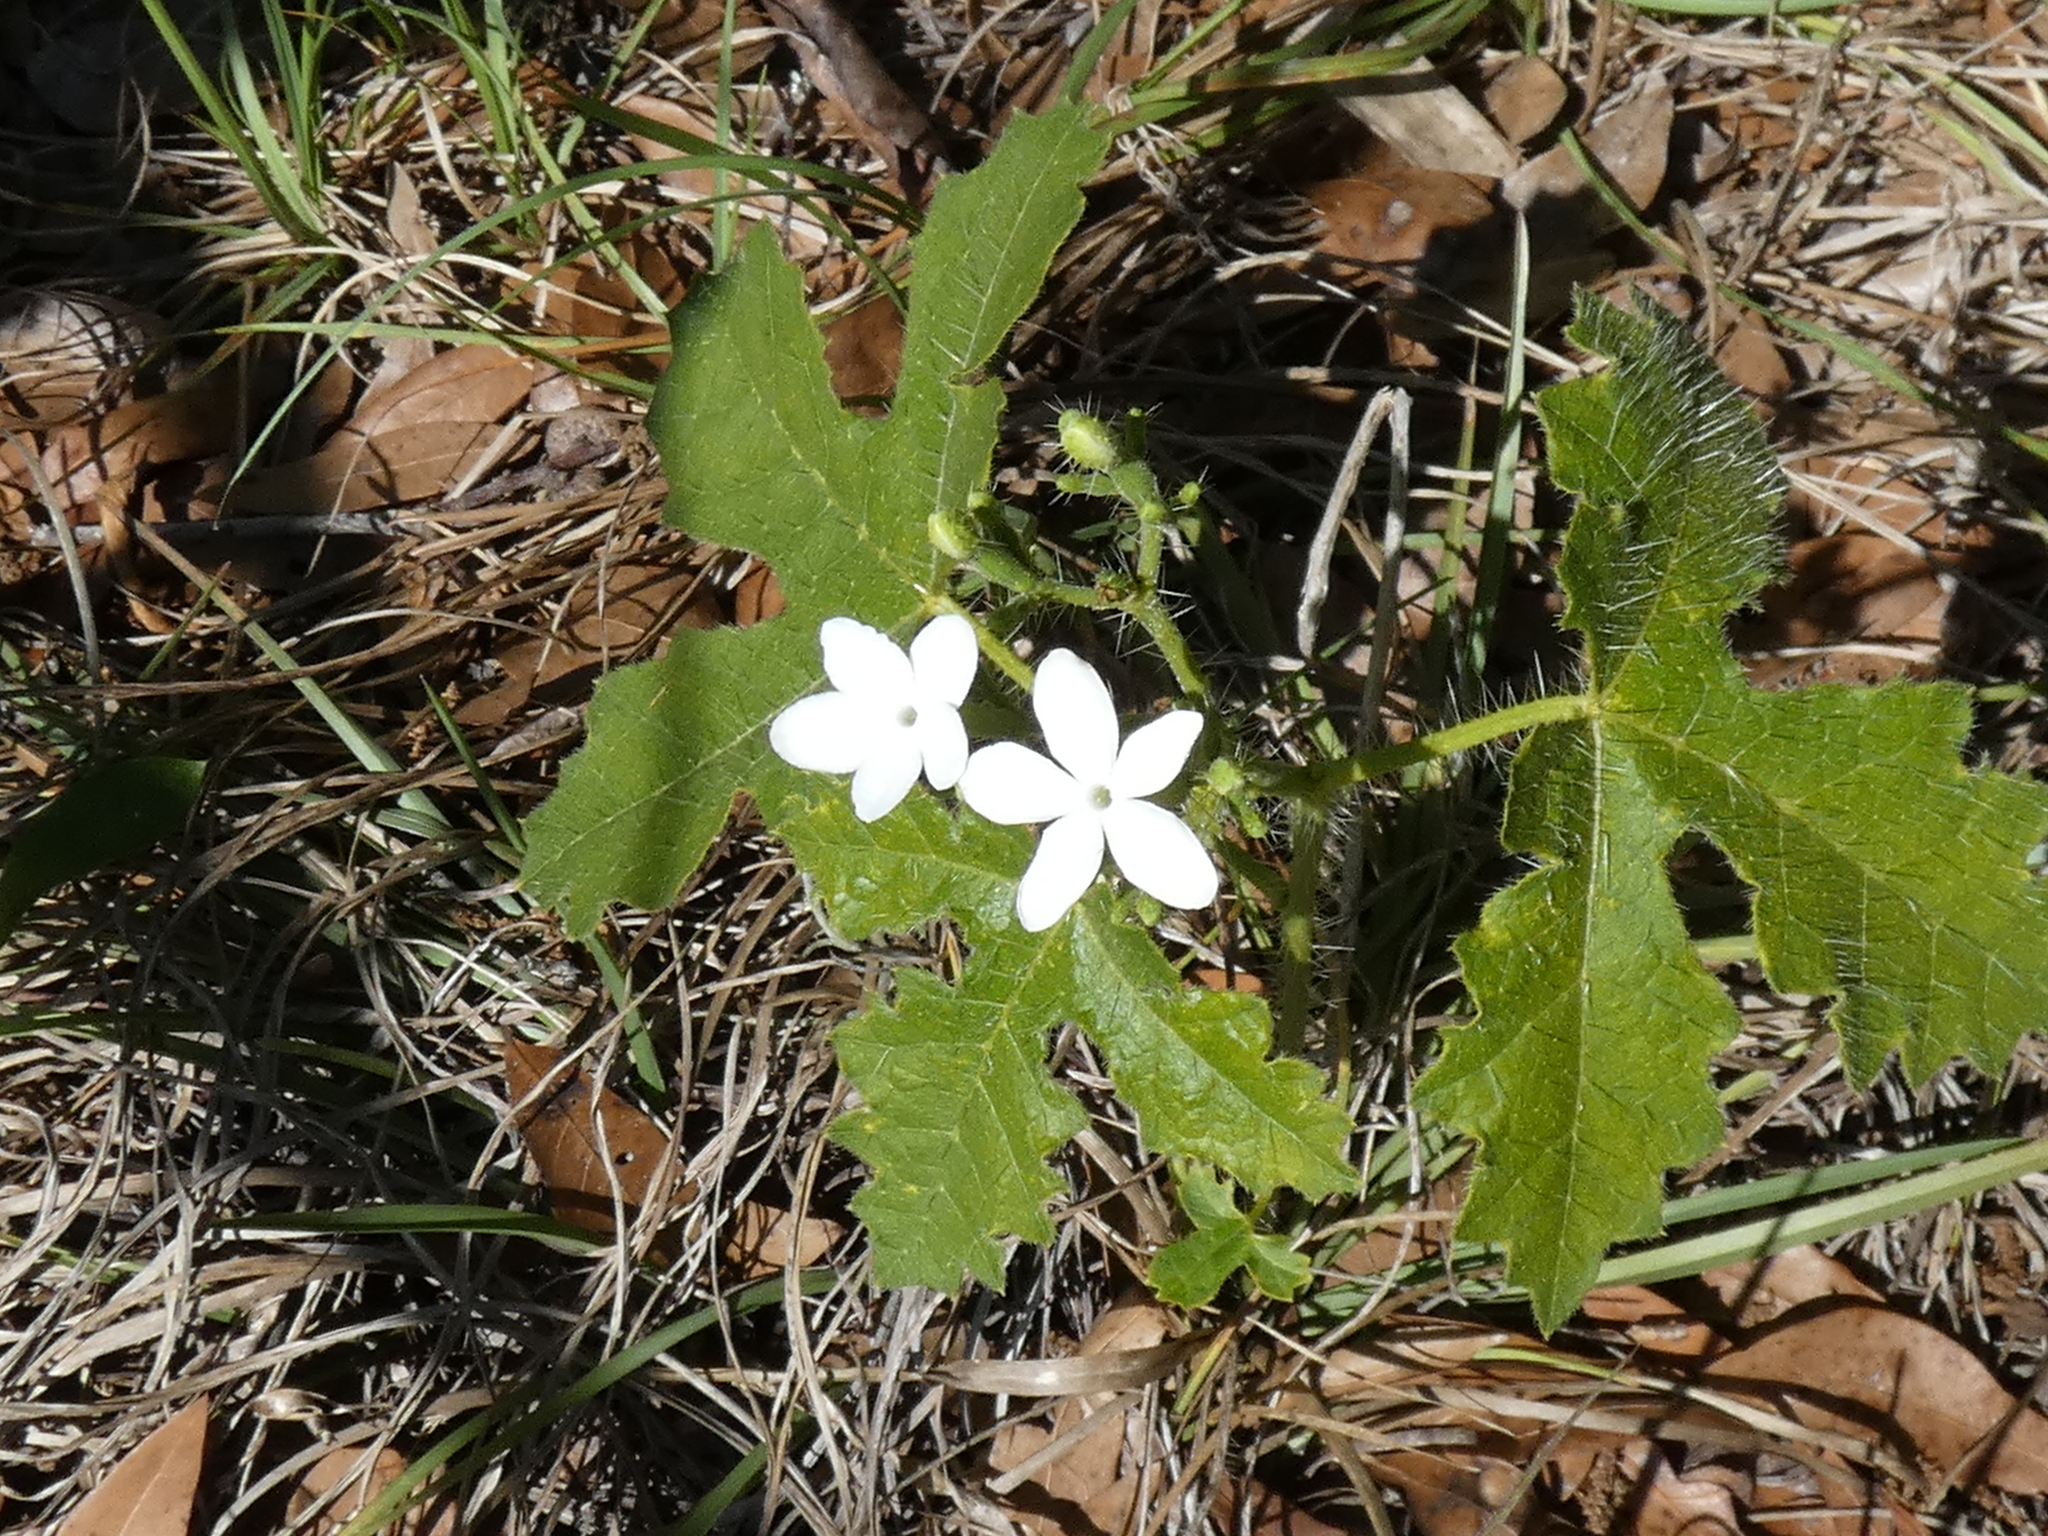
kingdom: Plantae
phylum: Tracheophyta
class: Magnoliopsida
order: Malpighiales
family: Euphorbiaceae
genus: Cnidoscolus
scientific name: Cnidoscolus stimulosus
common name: Bull-nettle
